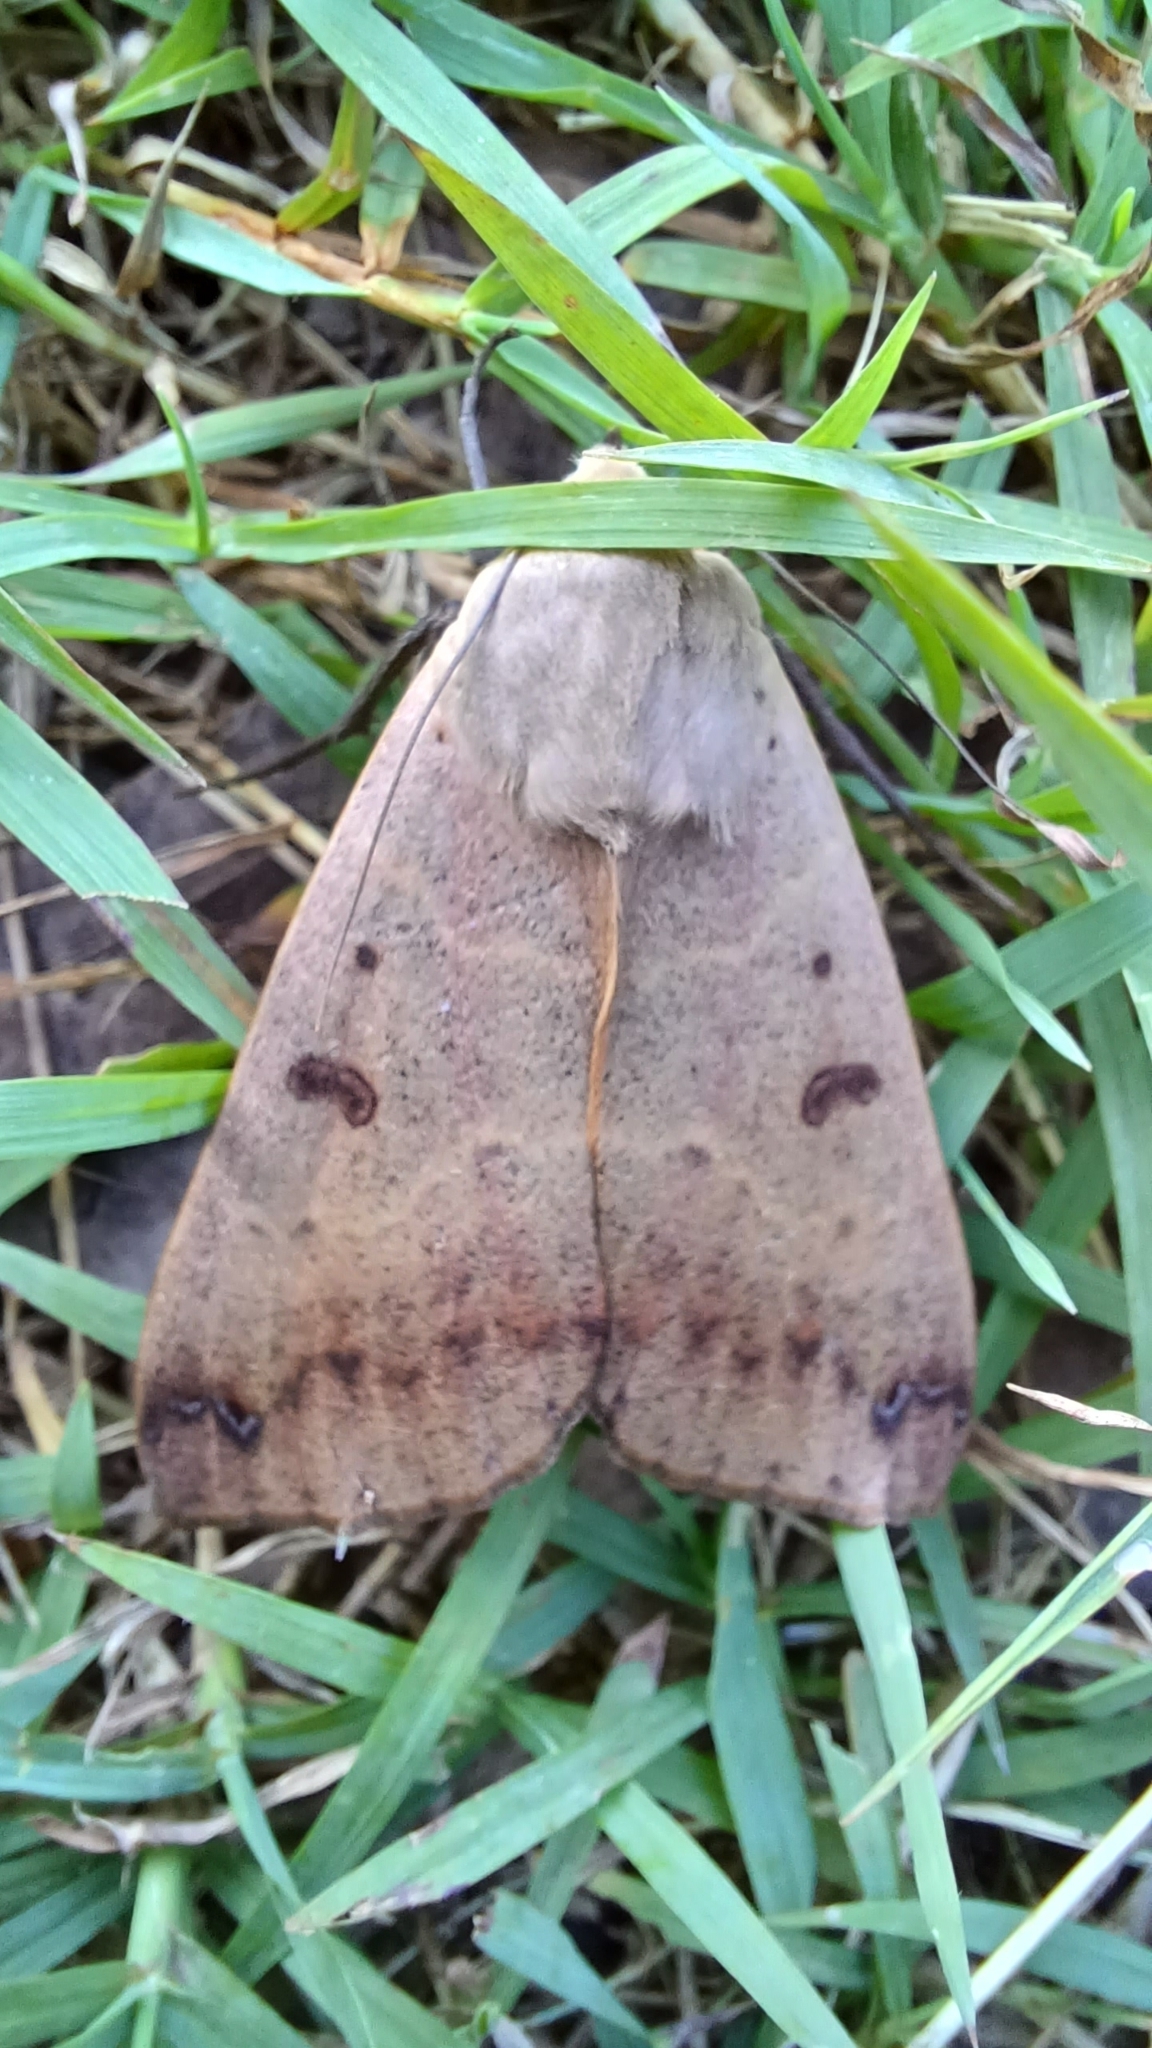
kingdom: Animalia
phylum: Arthropoda
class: Insecta
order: Lepidoptera
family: Erebidae
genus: Ophiusa
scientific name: Ophiusa disjungens
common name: Moth
